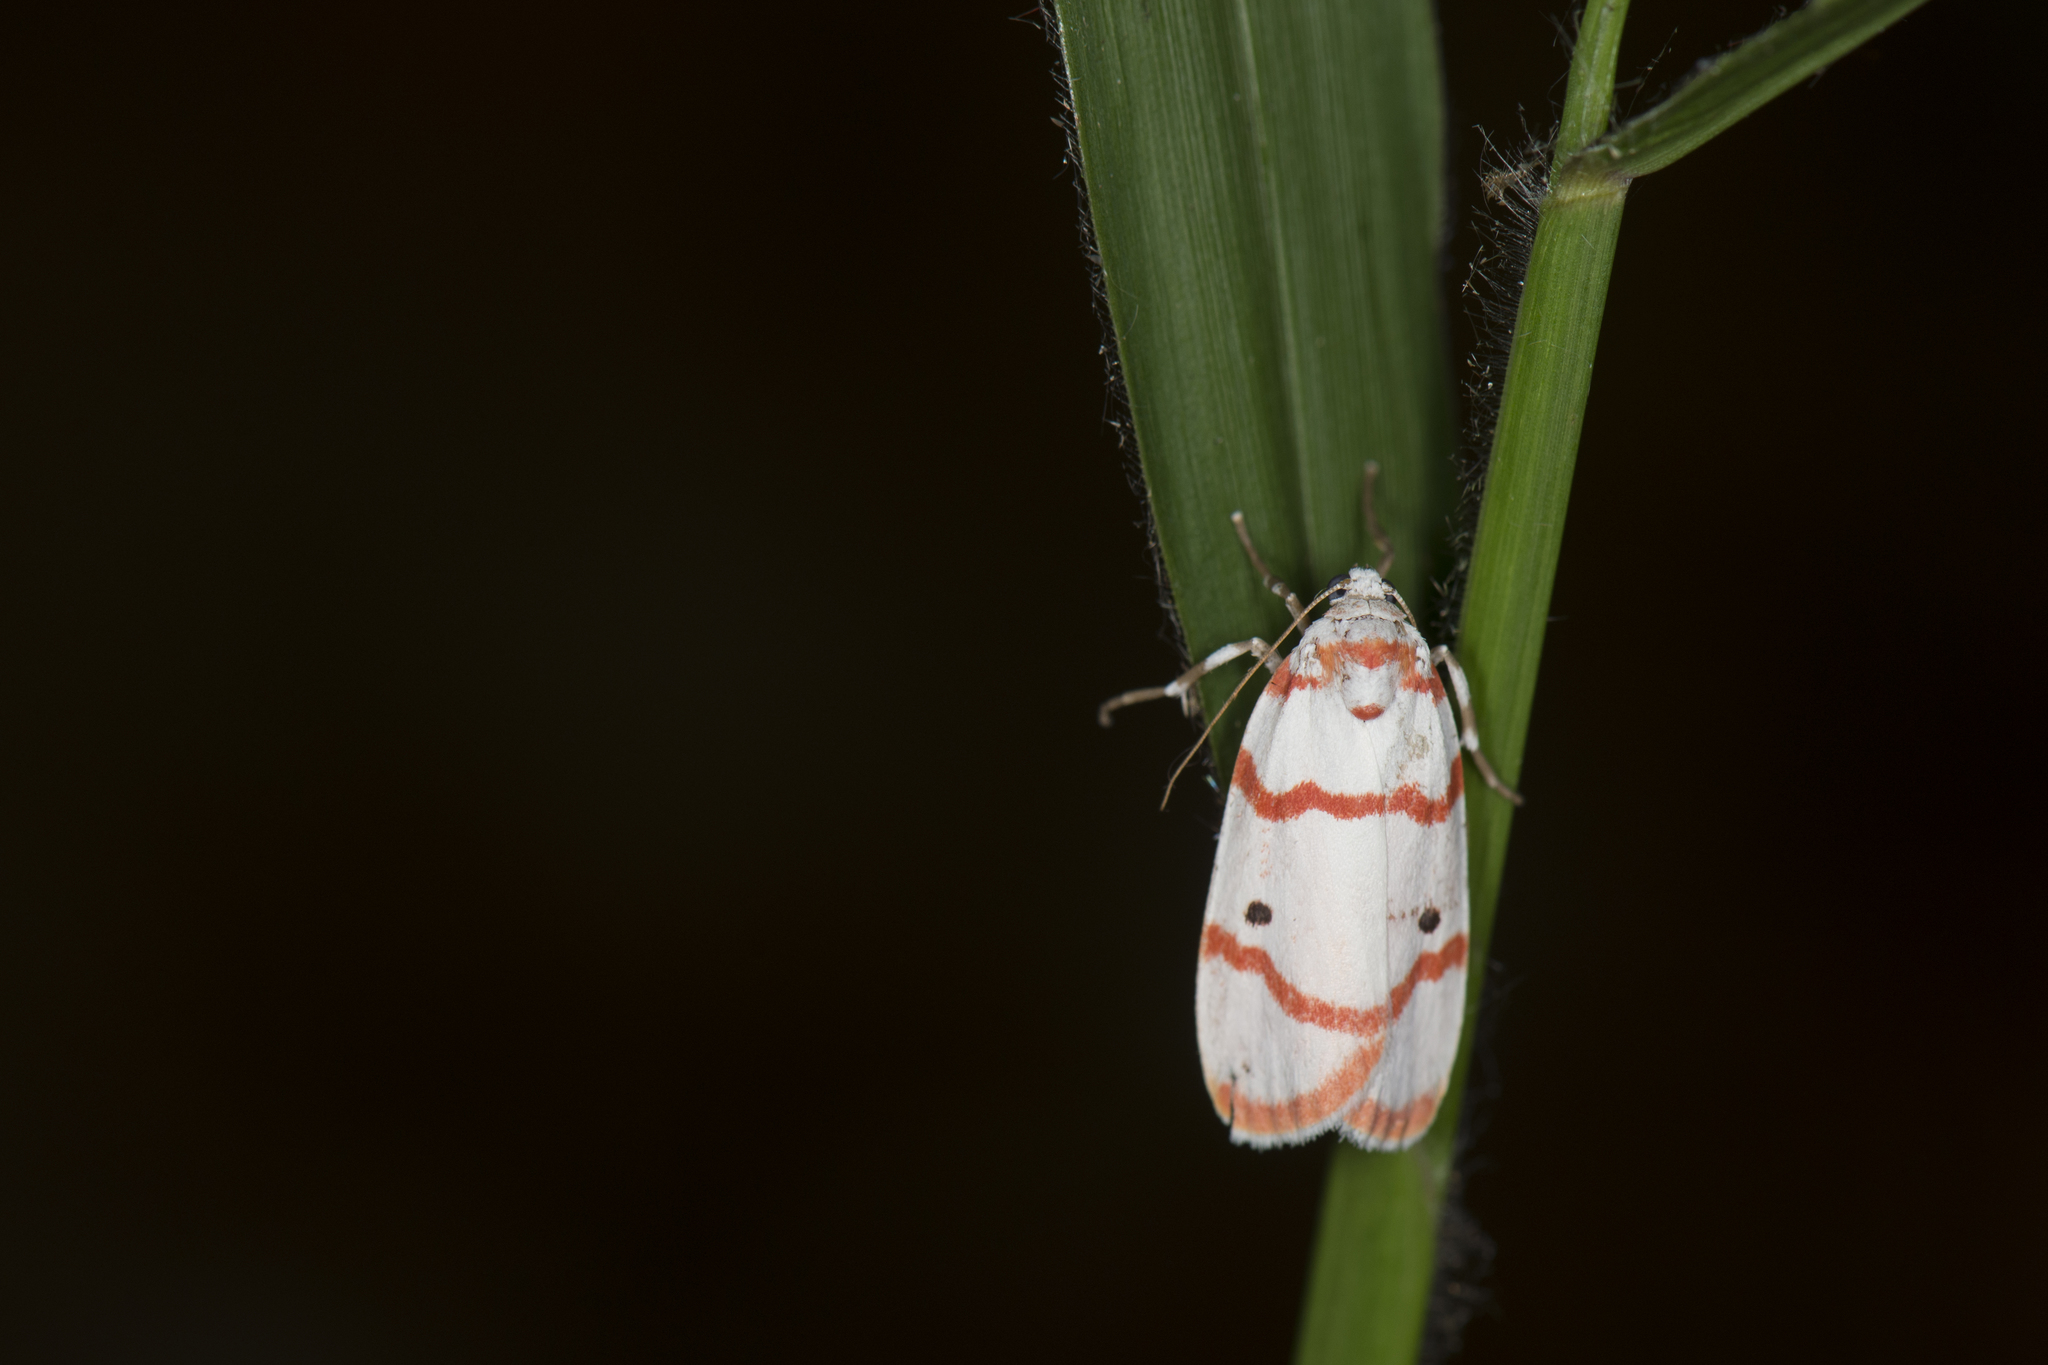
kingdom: Animalia
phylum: Arthropoda
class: Insecta
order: Lepidoptera
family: Erebidae
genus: Cyana
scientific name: Cyana hamata
